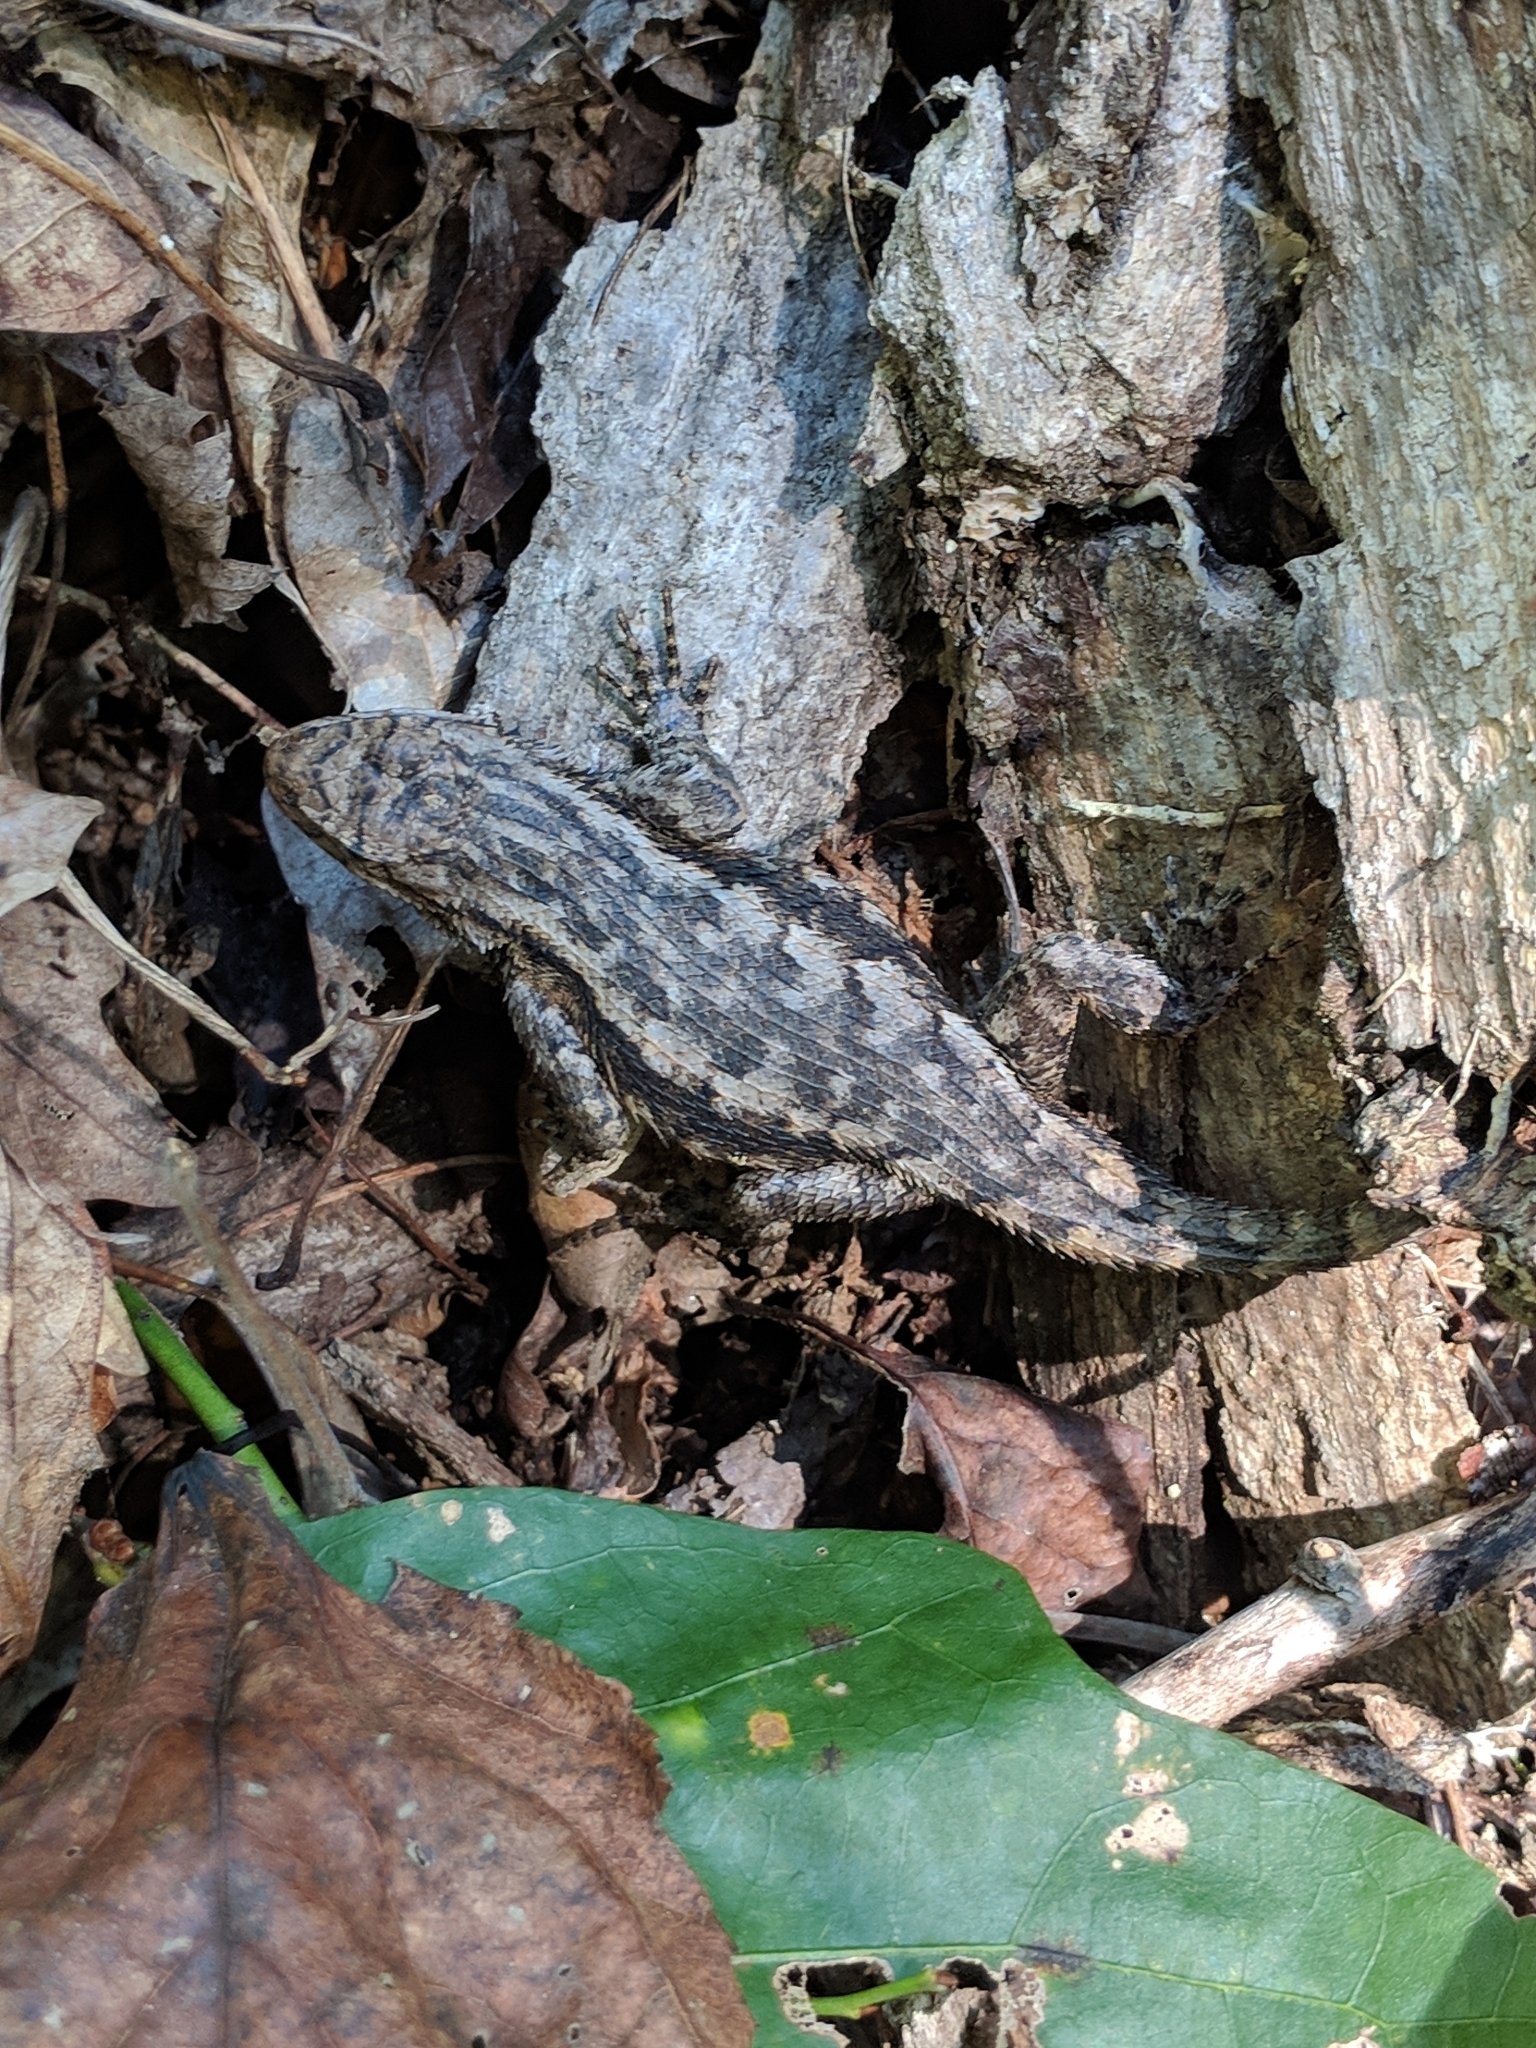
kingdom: Animalia
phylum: Chordata
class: Squamata
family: Phrynosomatidae
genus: Sceloporus
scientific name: Sceloporus undulatus
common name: Eastern fence lizard
